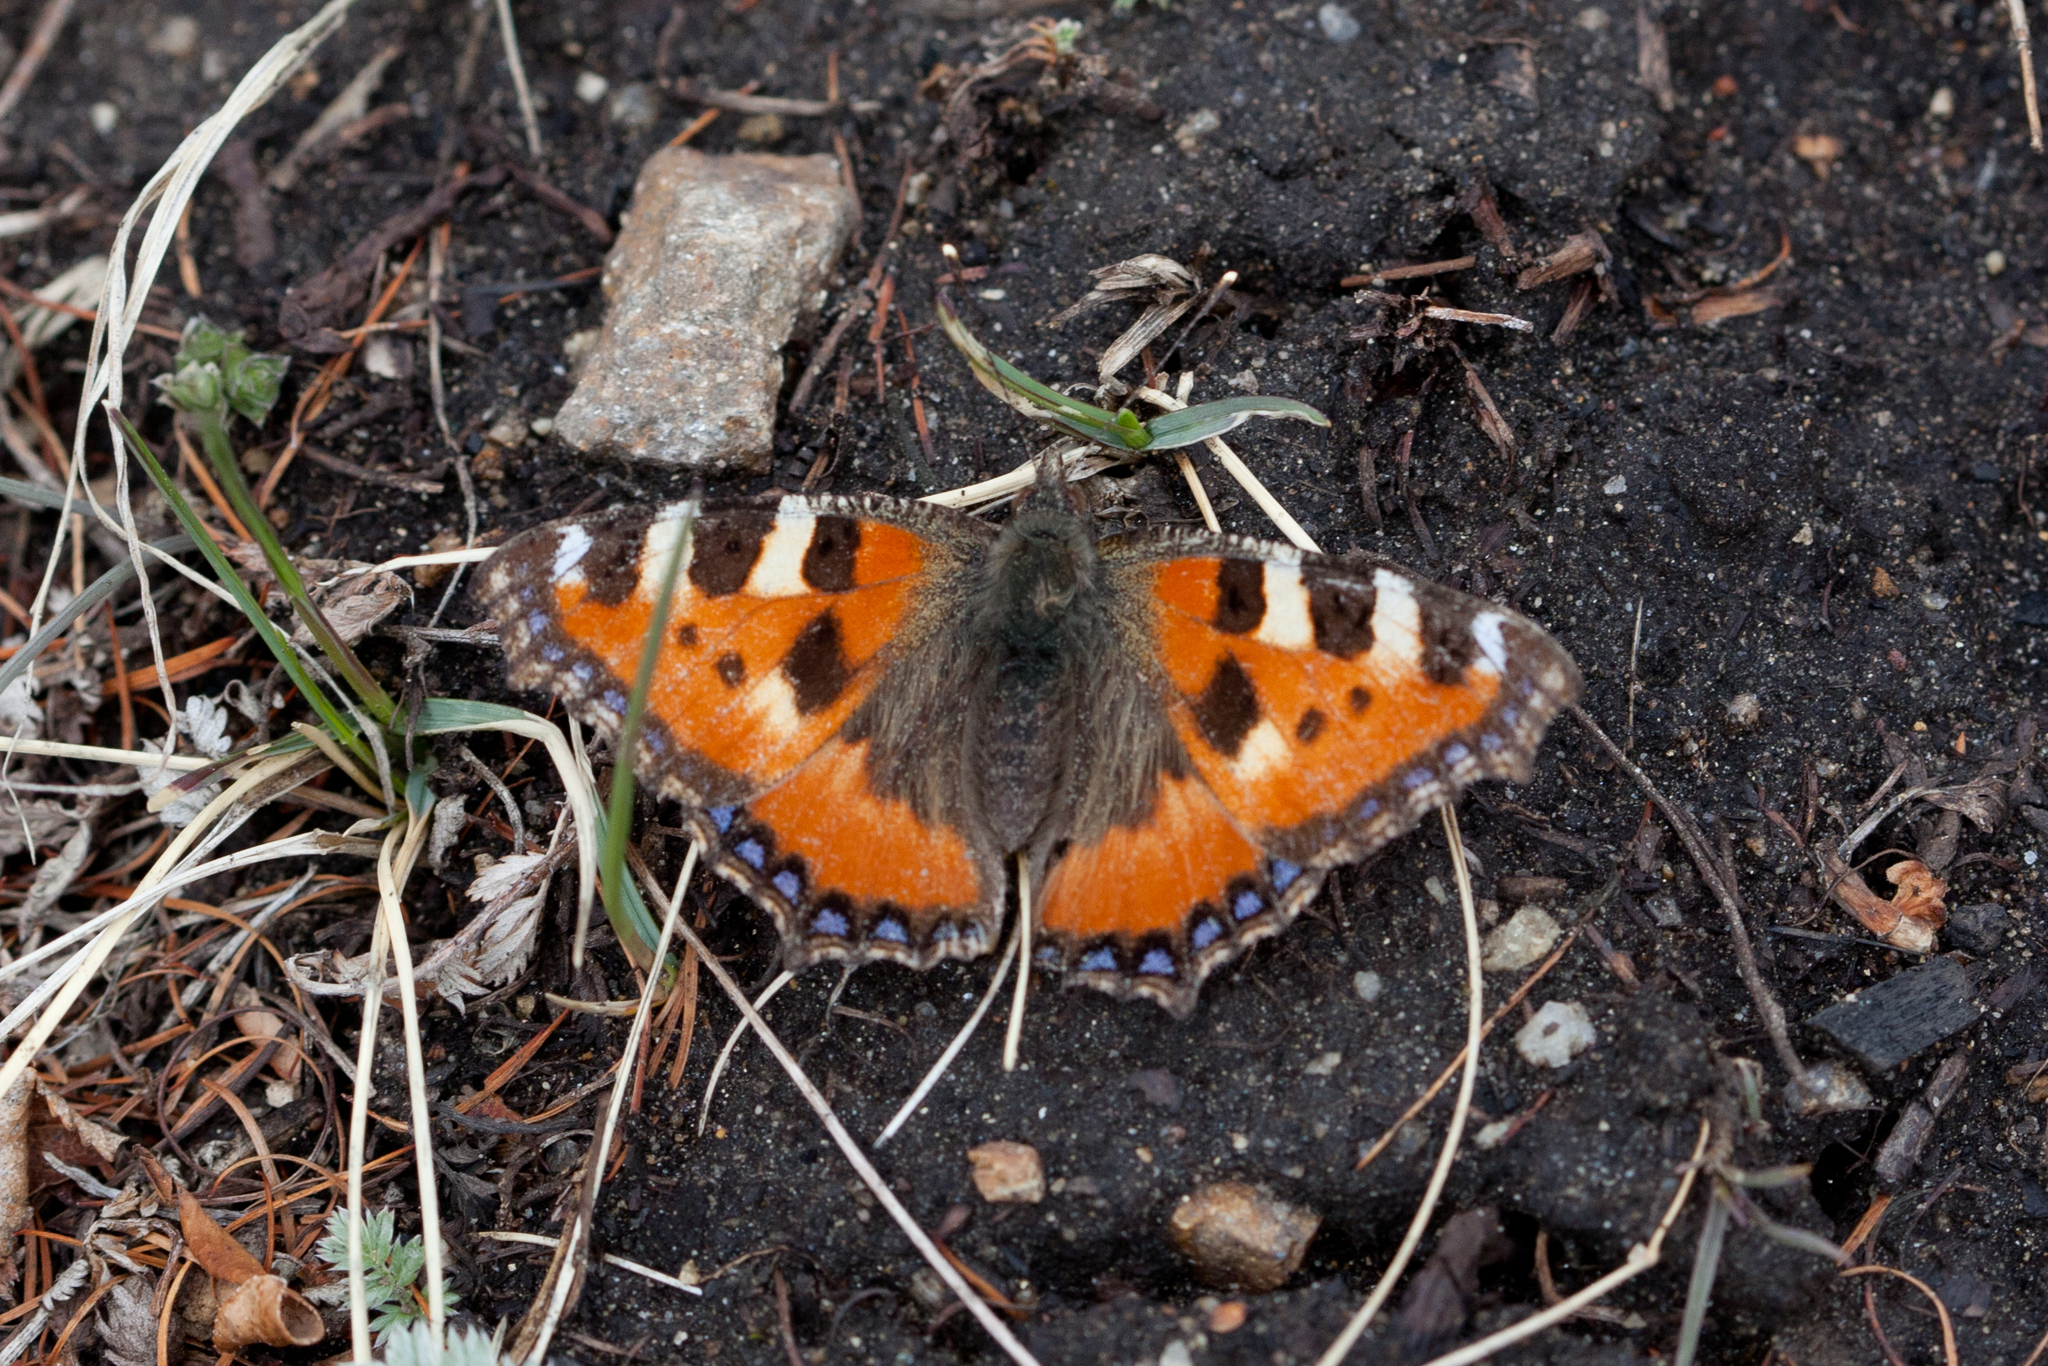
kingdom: Animalia
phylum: Arthropoda
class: Insecta
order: Lepidoptera
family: Nymphalidae
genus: Aglais
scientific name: Aglais urticae
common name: Small tortoiseshell
